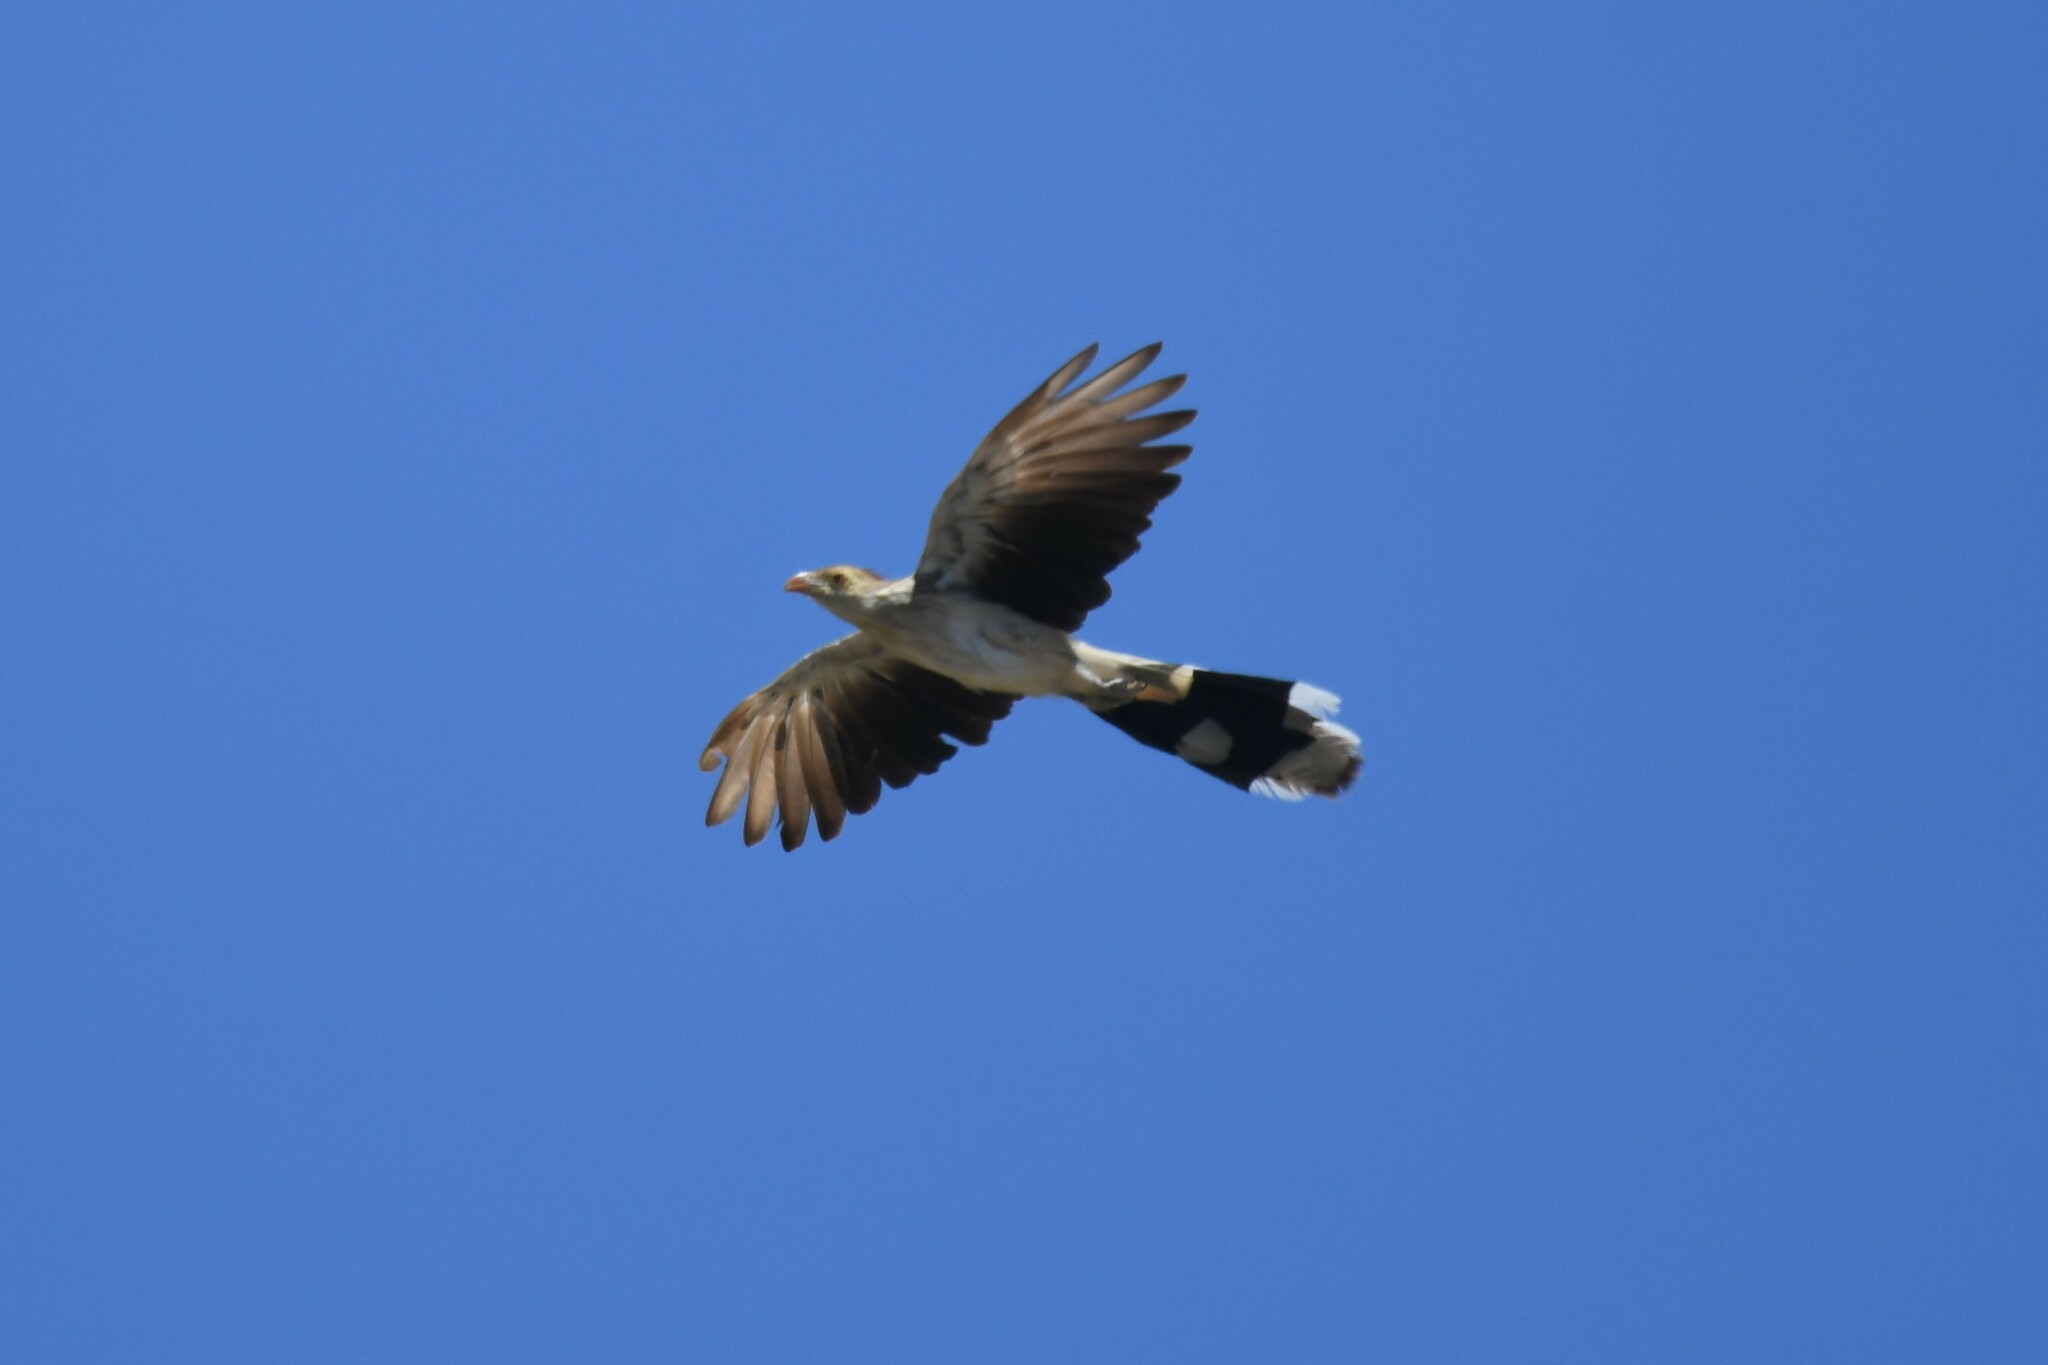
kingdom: Animalia
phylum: Chordata
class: Aves
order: Cuculiformes
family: Cuculidae
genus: Guira
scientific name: Guira guira
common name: Guira cuckoo
